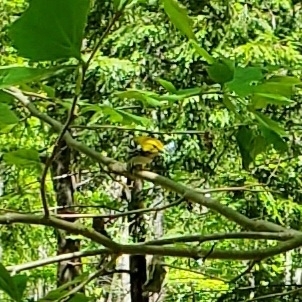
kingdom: Animalia
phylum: Chordata
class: Aves
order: Passeriformes
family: Parulidae
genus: Setophaga
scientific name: Setophaga virens
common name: Black-throated green warbler
